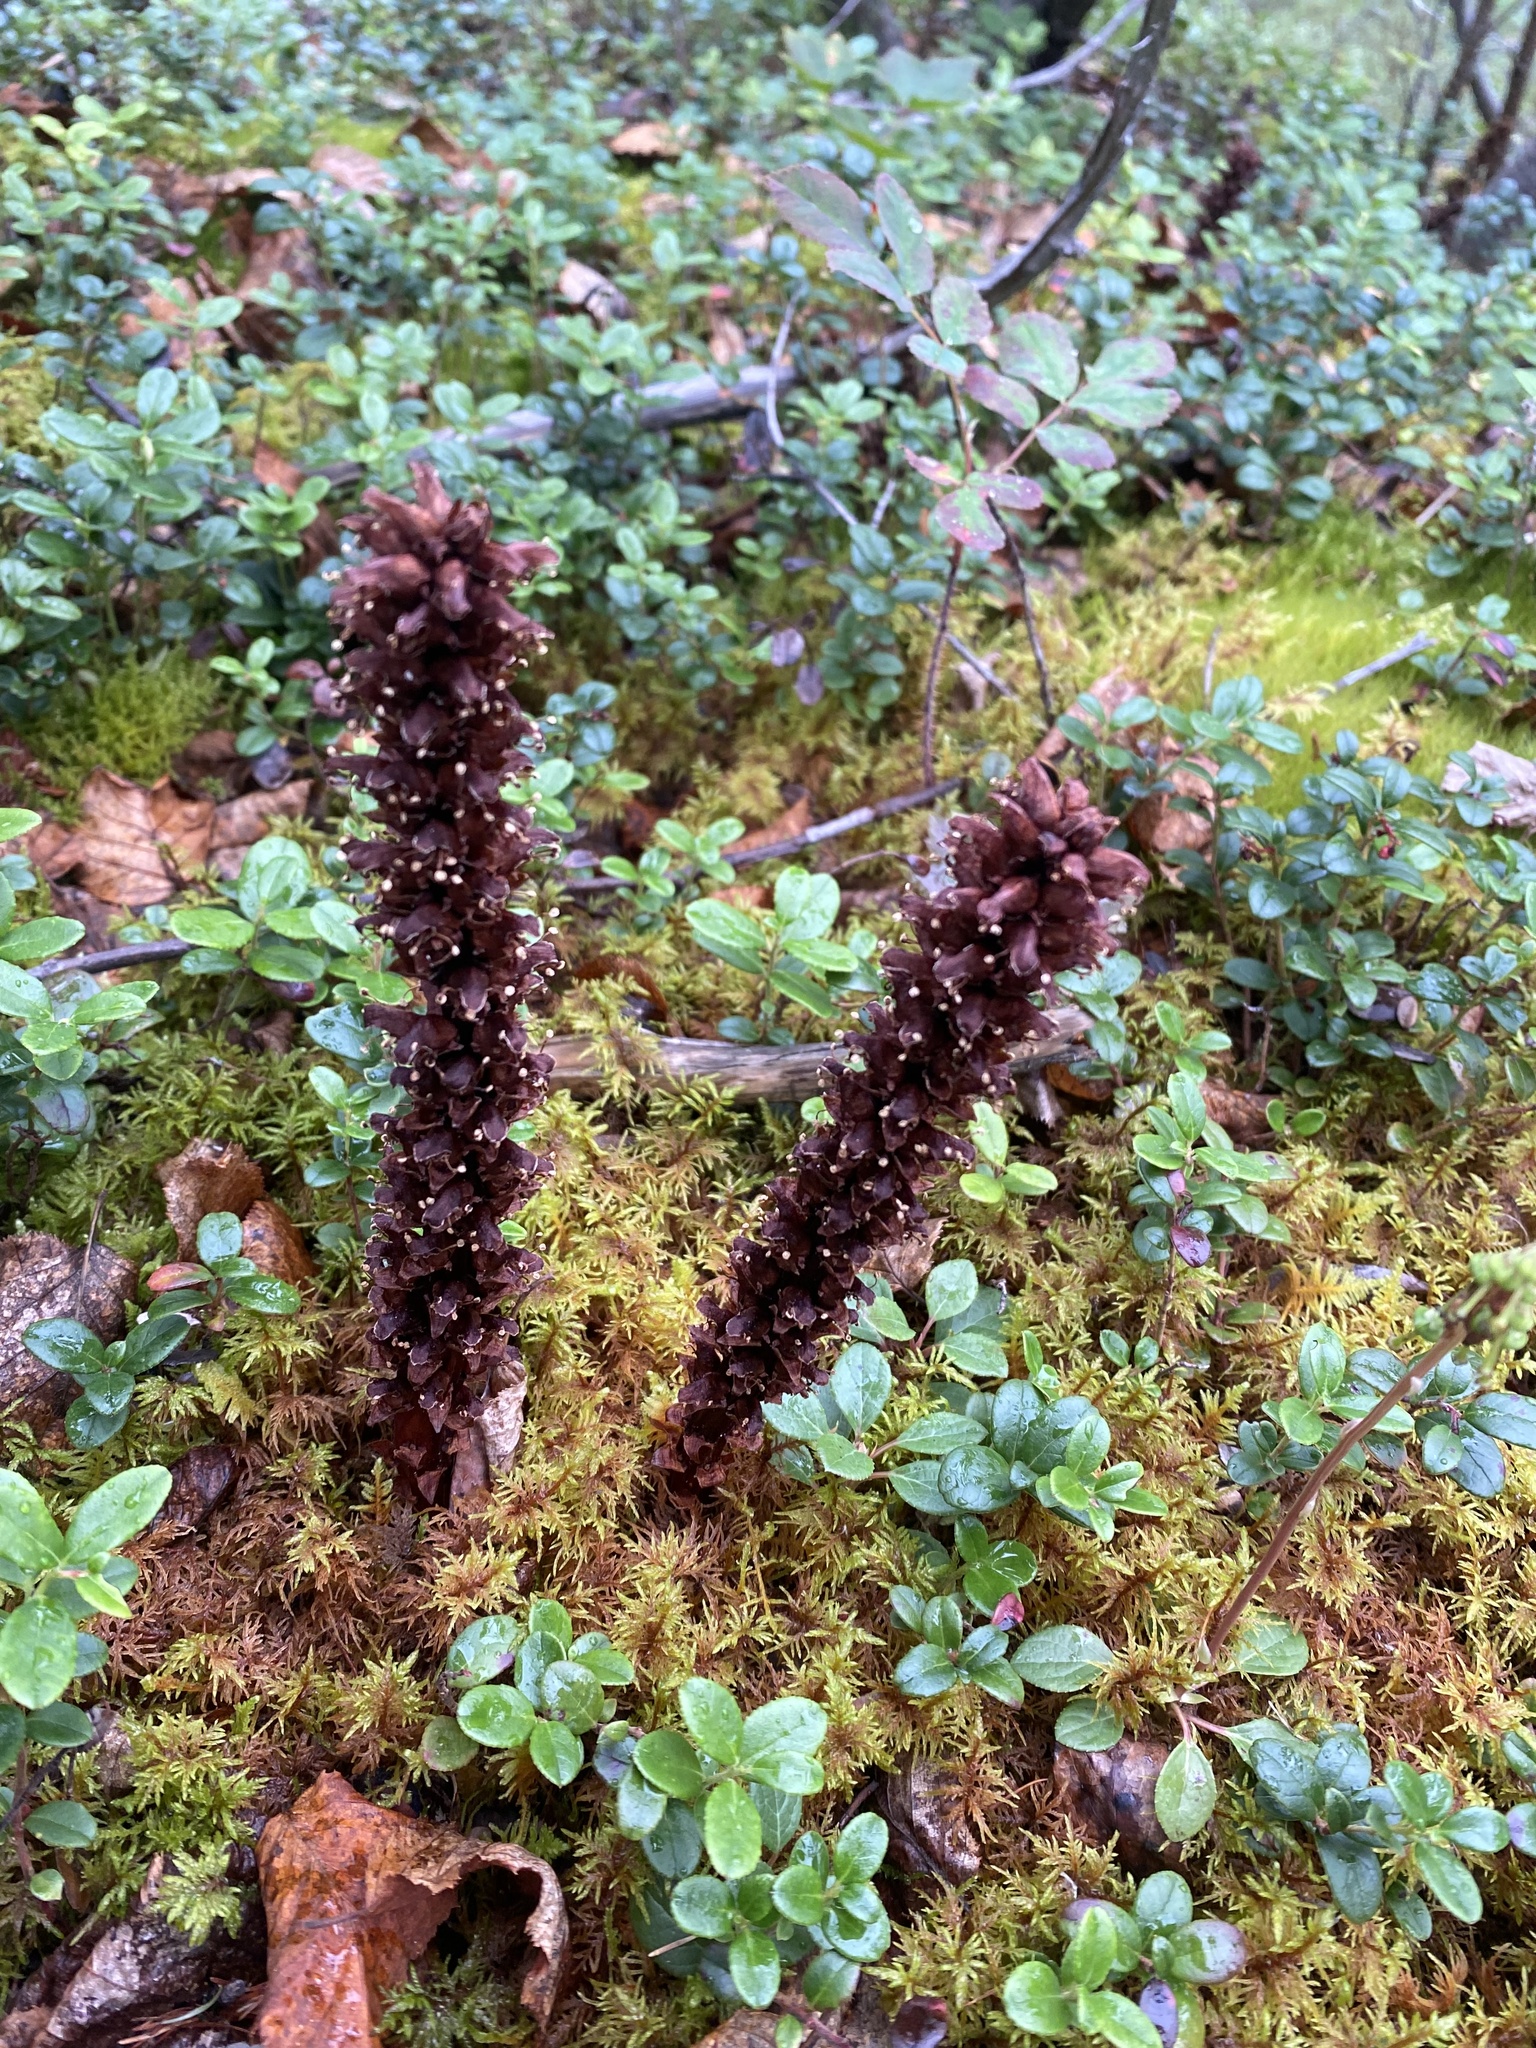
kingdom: Plantae
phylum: Tracheophyta
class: Magnoliopsida
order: Lamiales
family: Orobanchaceae
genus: Boschniakia
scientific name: Boschniakia rossica
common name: Poque
